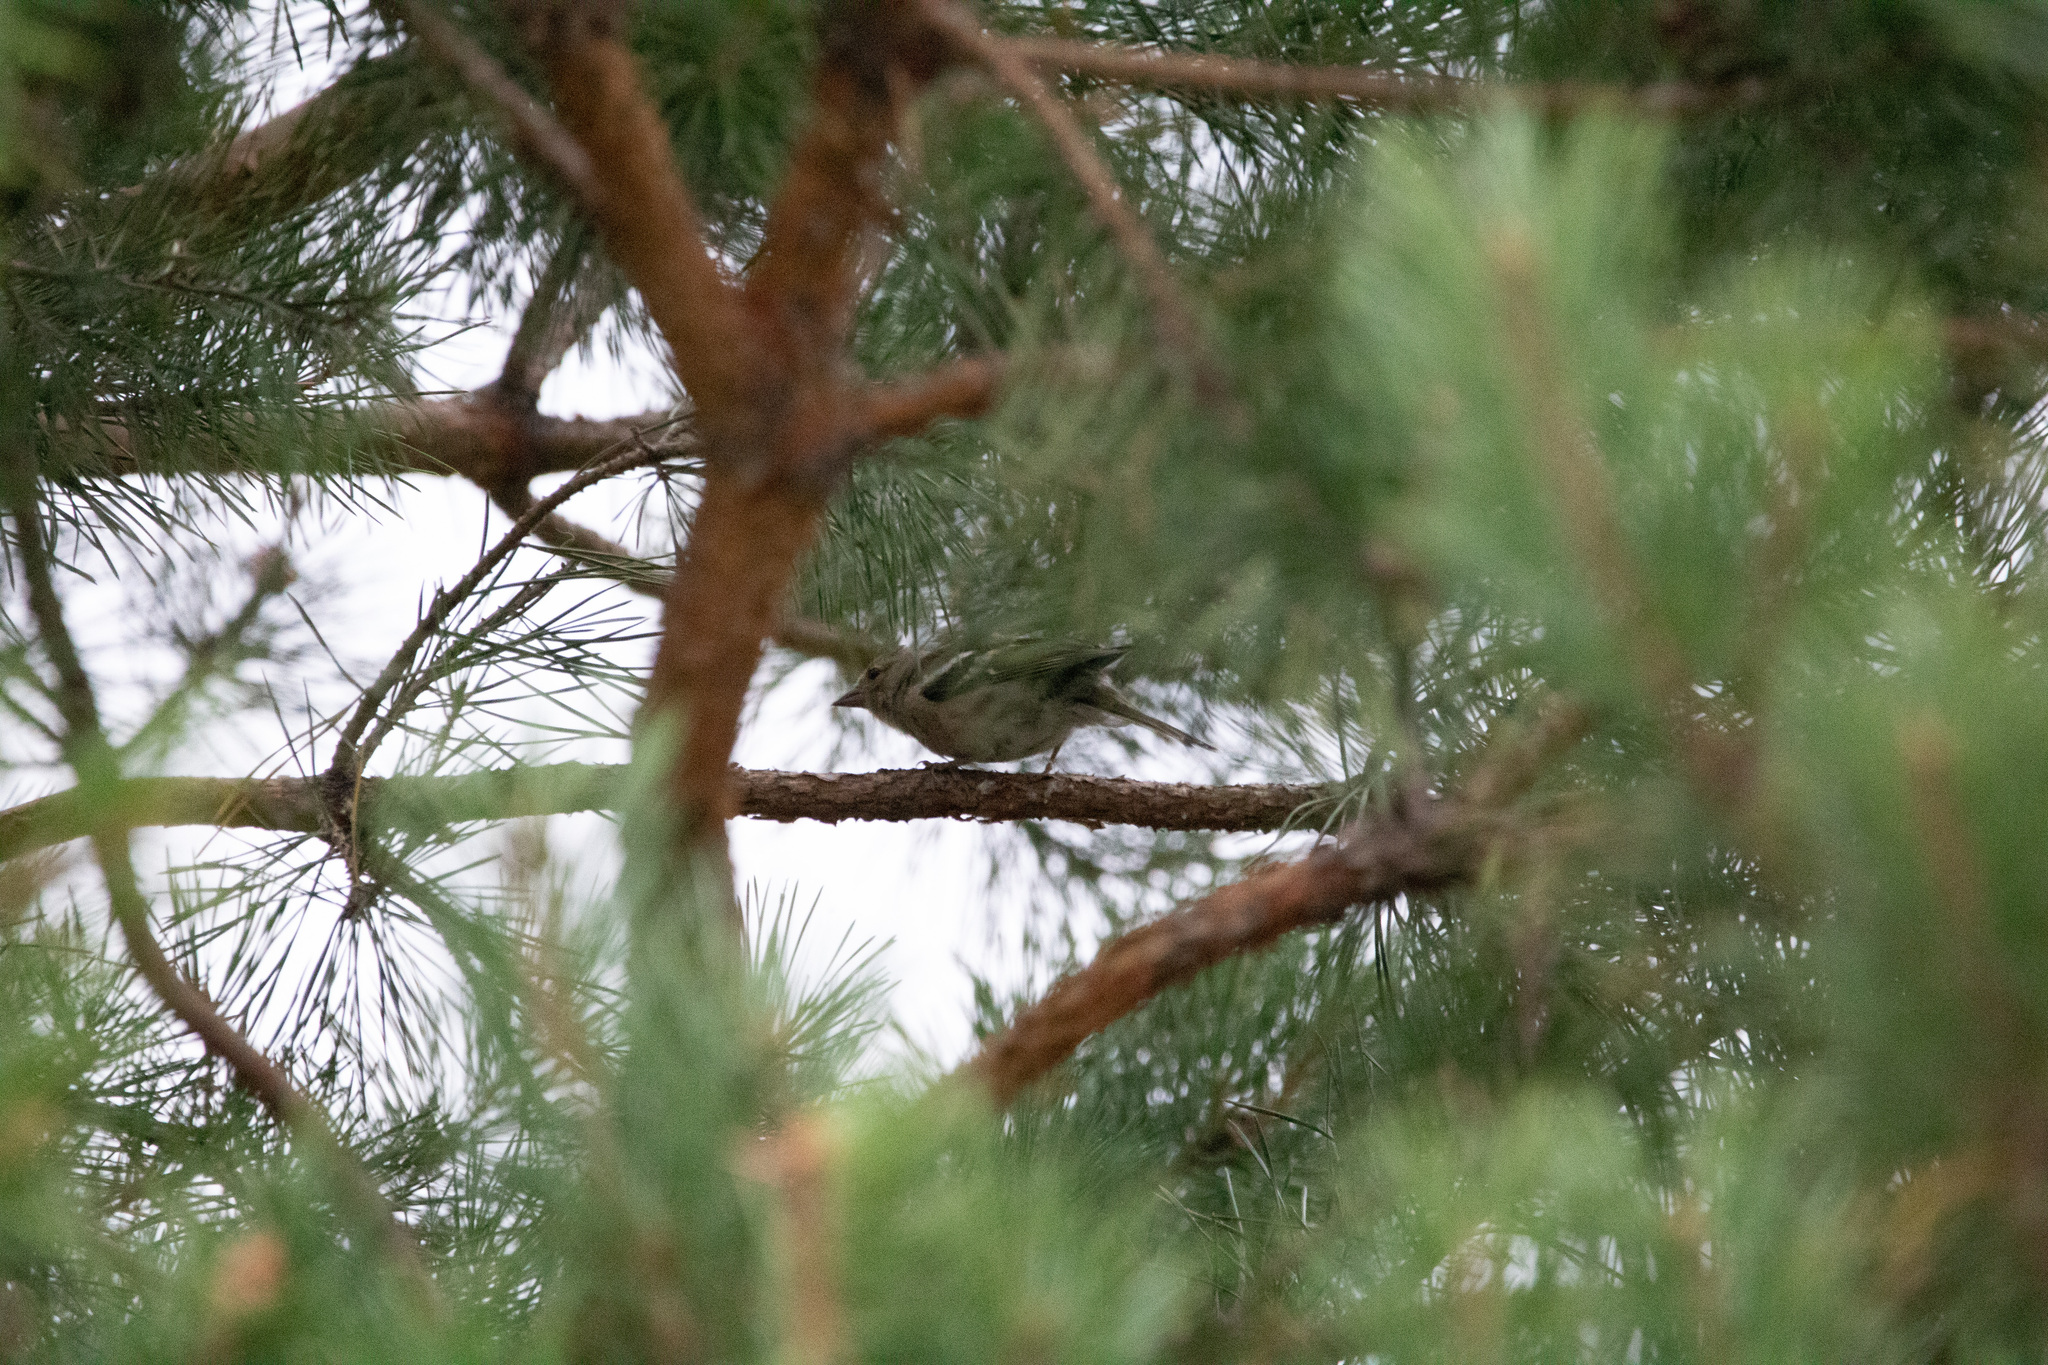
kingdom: Animalia
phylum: Chordata
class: Aves
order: Passeriformes
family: Fringillidae
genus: Fringilla
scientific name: Fringilla coelebs
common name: Common chaffinch
